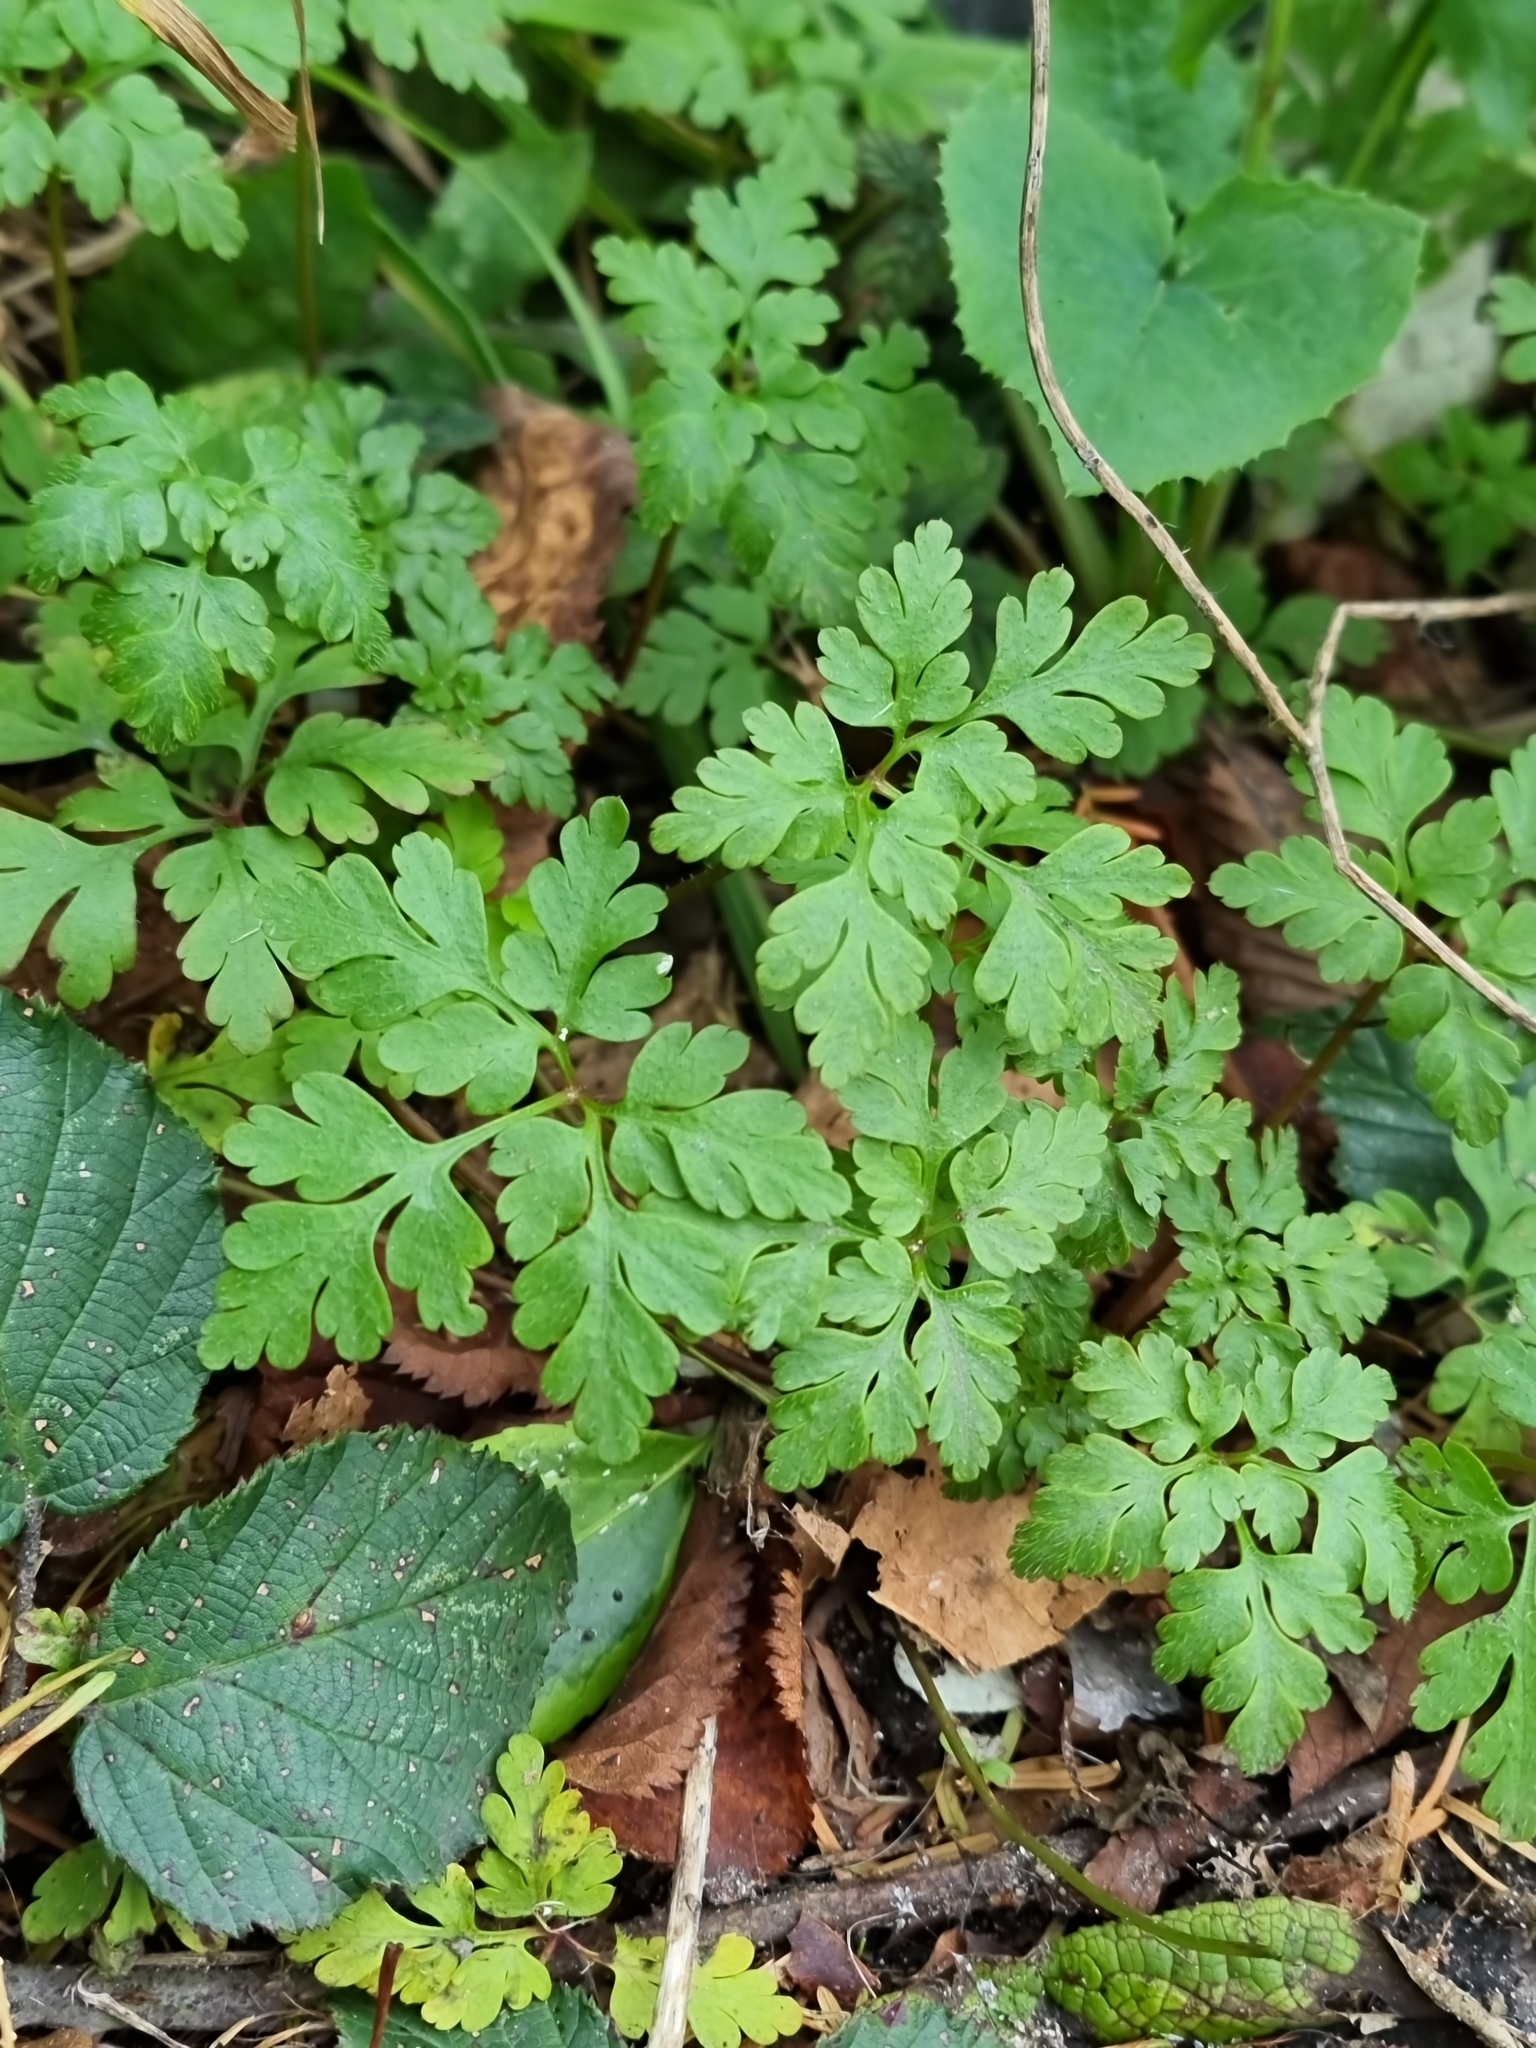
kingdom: Plantae
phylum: Tracheophyta
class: Magnoliopsida
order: Geraniales
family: Geraniaceae
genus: Geranium
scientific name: Geranium robertianum
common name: Herb-robert
